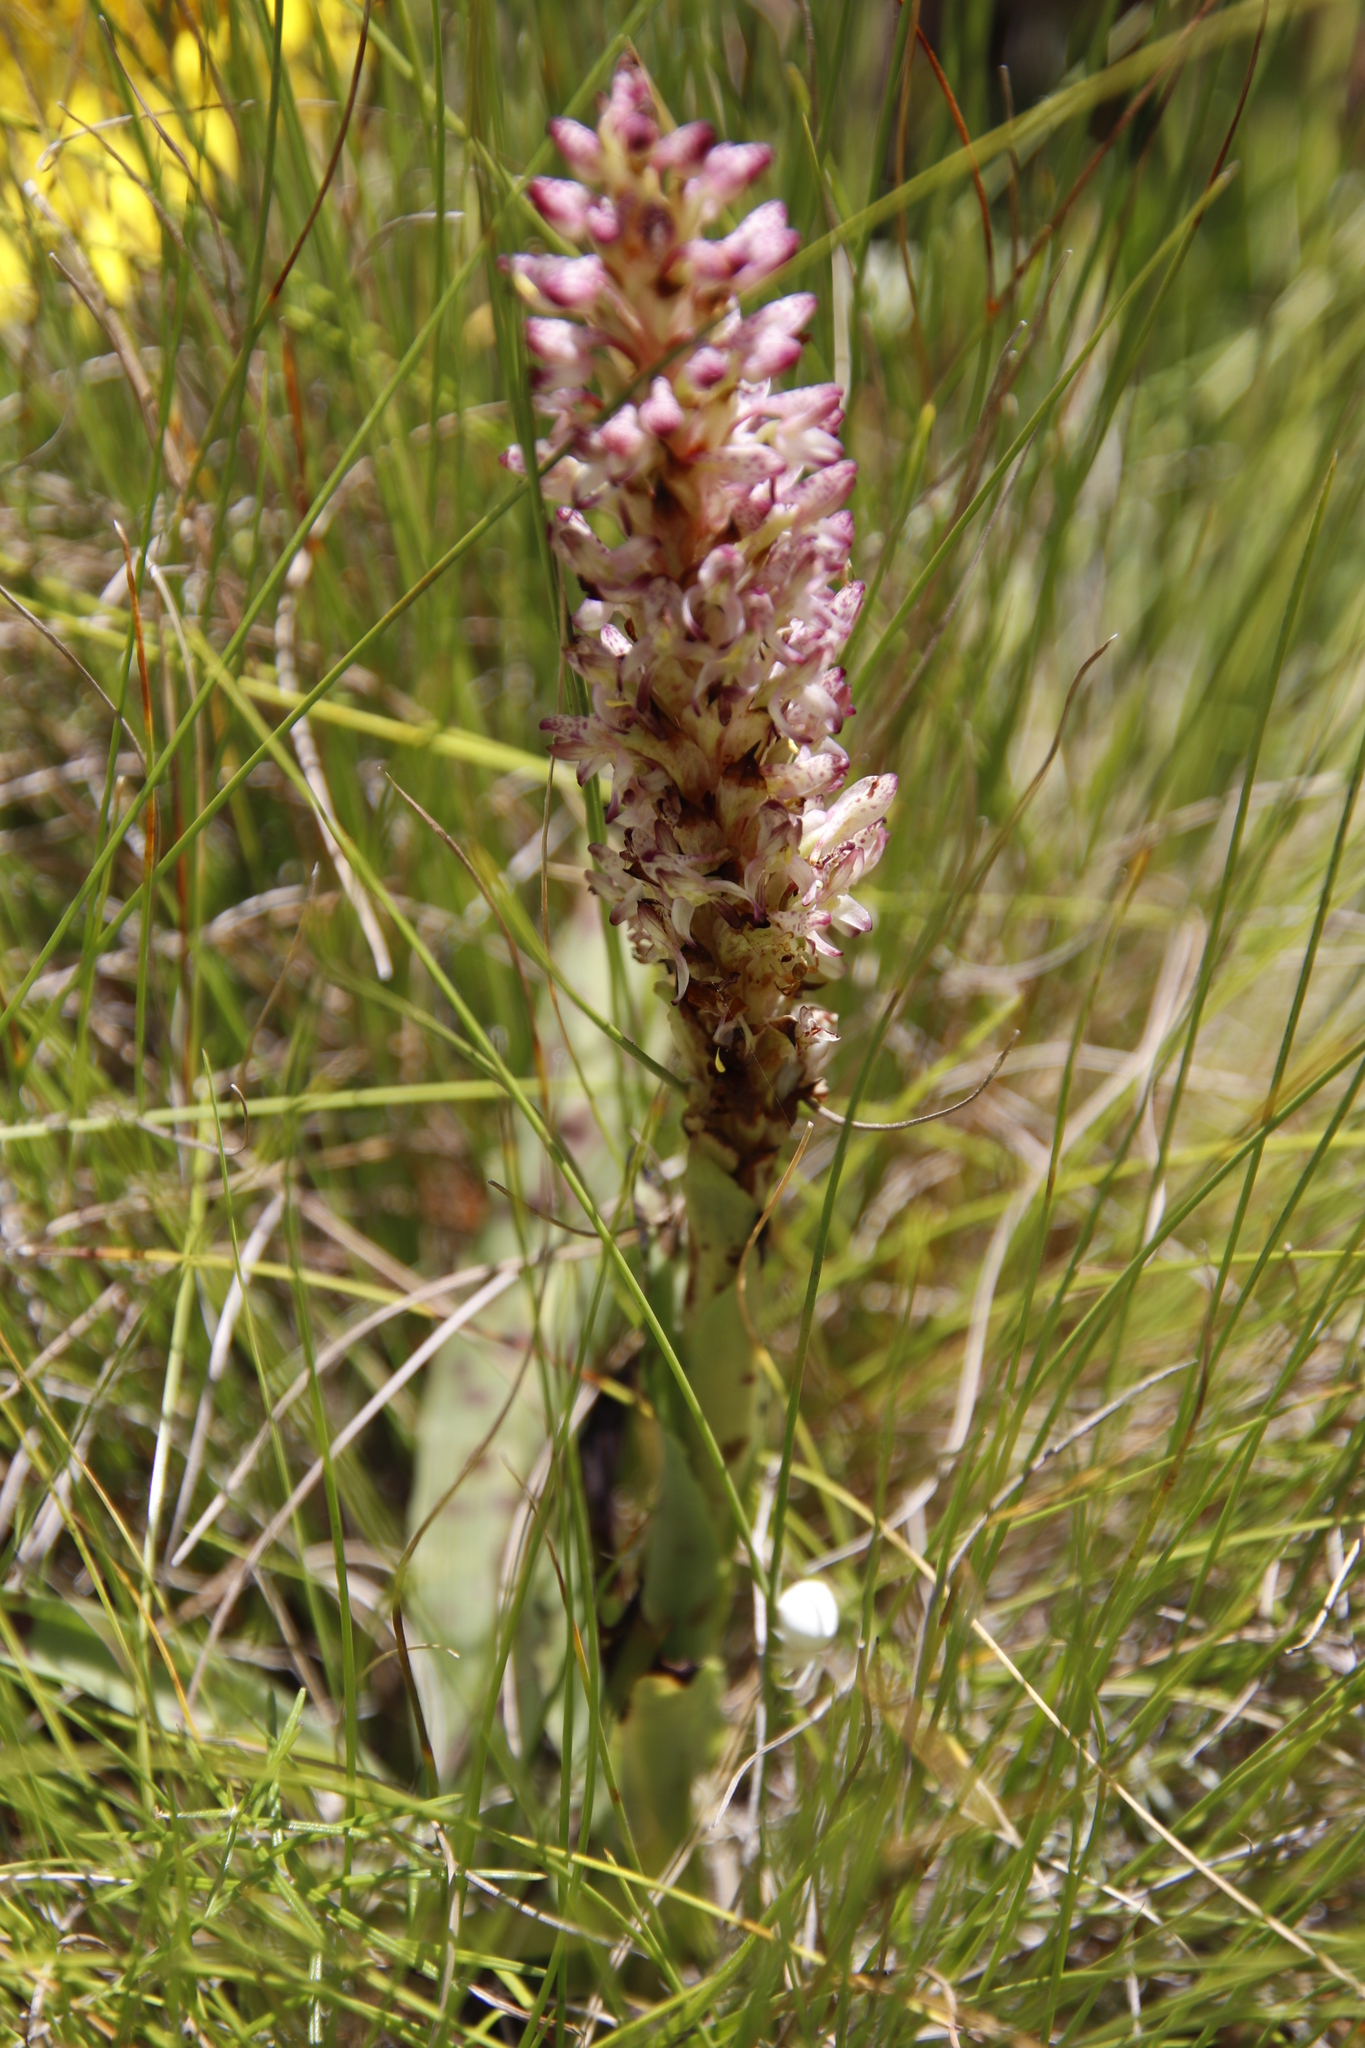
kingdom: Plantae
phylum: Tracheophyta
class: Liliopsida
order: Asparagales
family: Orchidaceae
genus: Disa
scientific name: Disa fragrans
